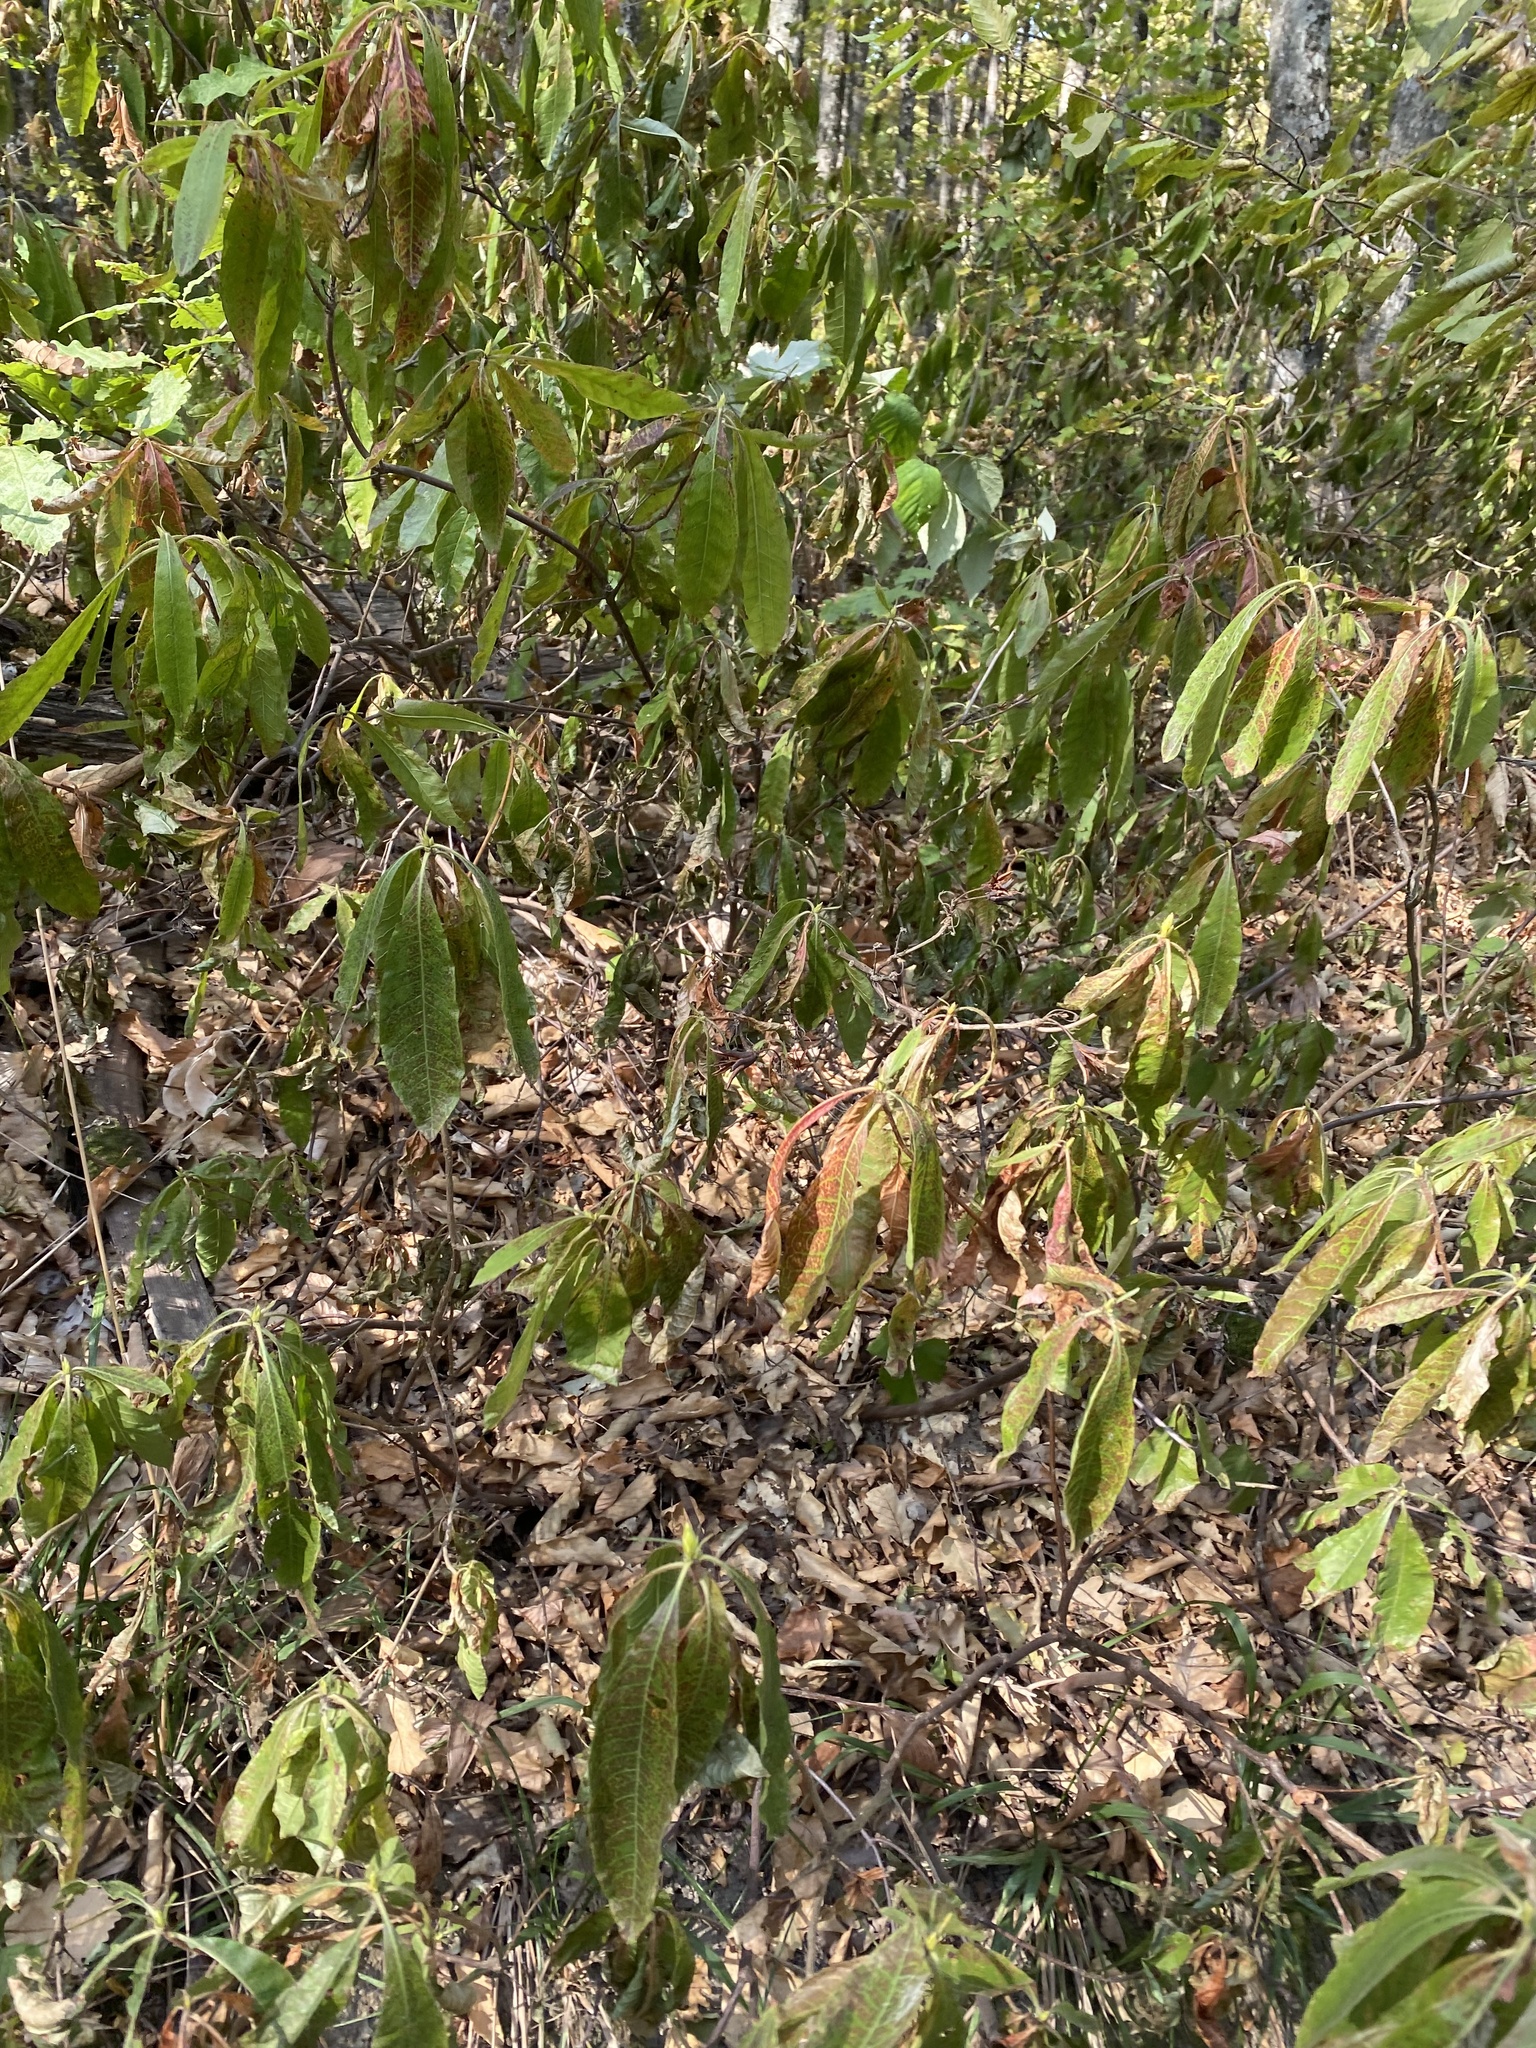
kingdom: Plantae
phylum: Tracheophyta
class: Magnoliopsida
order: Ericales
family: Ericaceae
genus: Rhododendron
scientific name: Rhododendron luteum
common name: Yellow azalea
